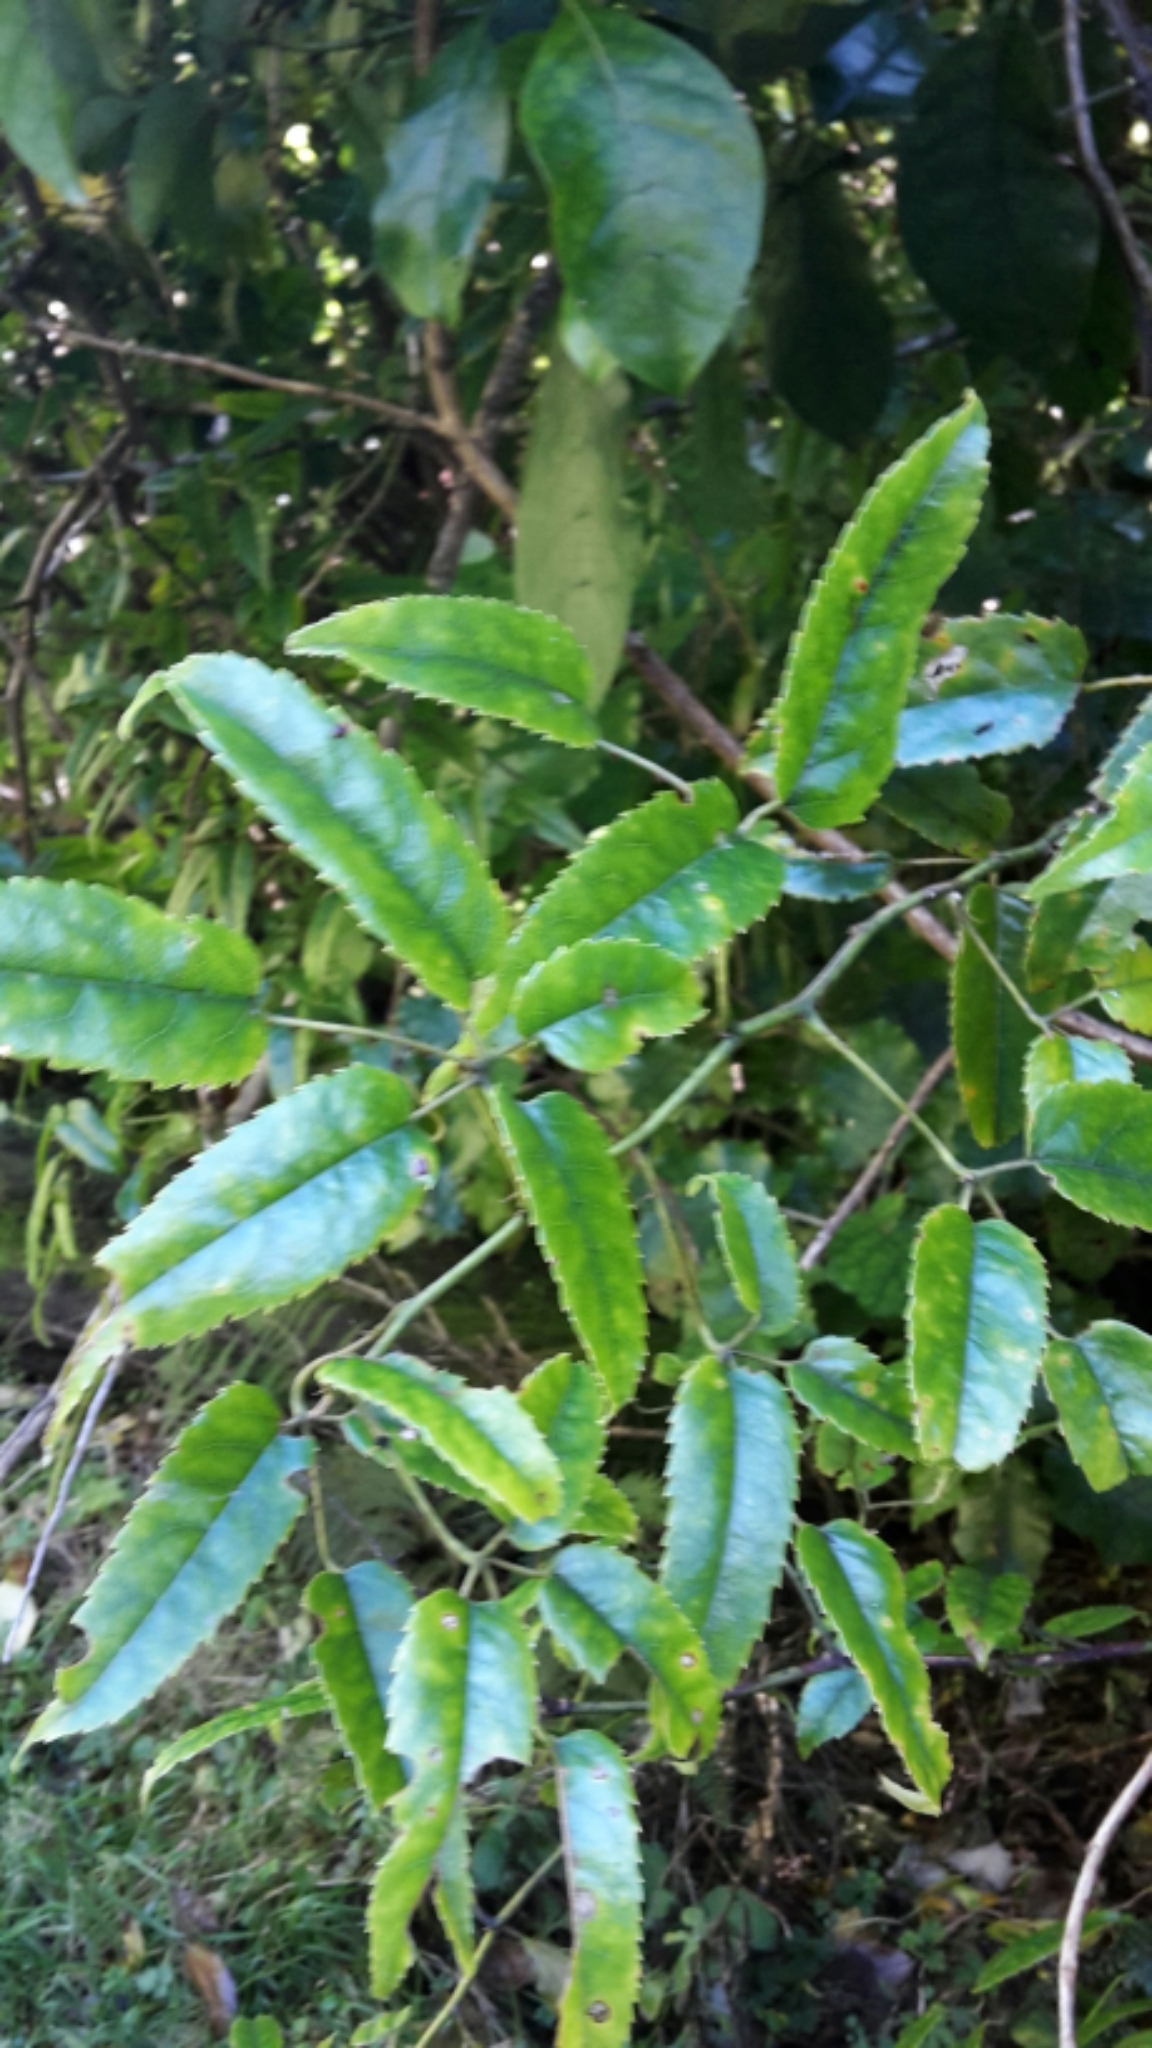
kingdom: Plantae
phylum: Tracheophyta
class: Magnoliopsida
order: Rosales
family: Rosaceae
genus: Rubus
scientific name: Rubus cissoides
